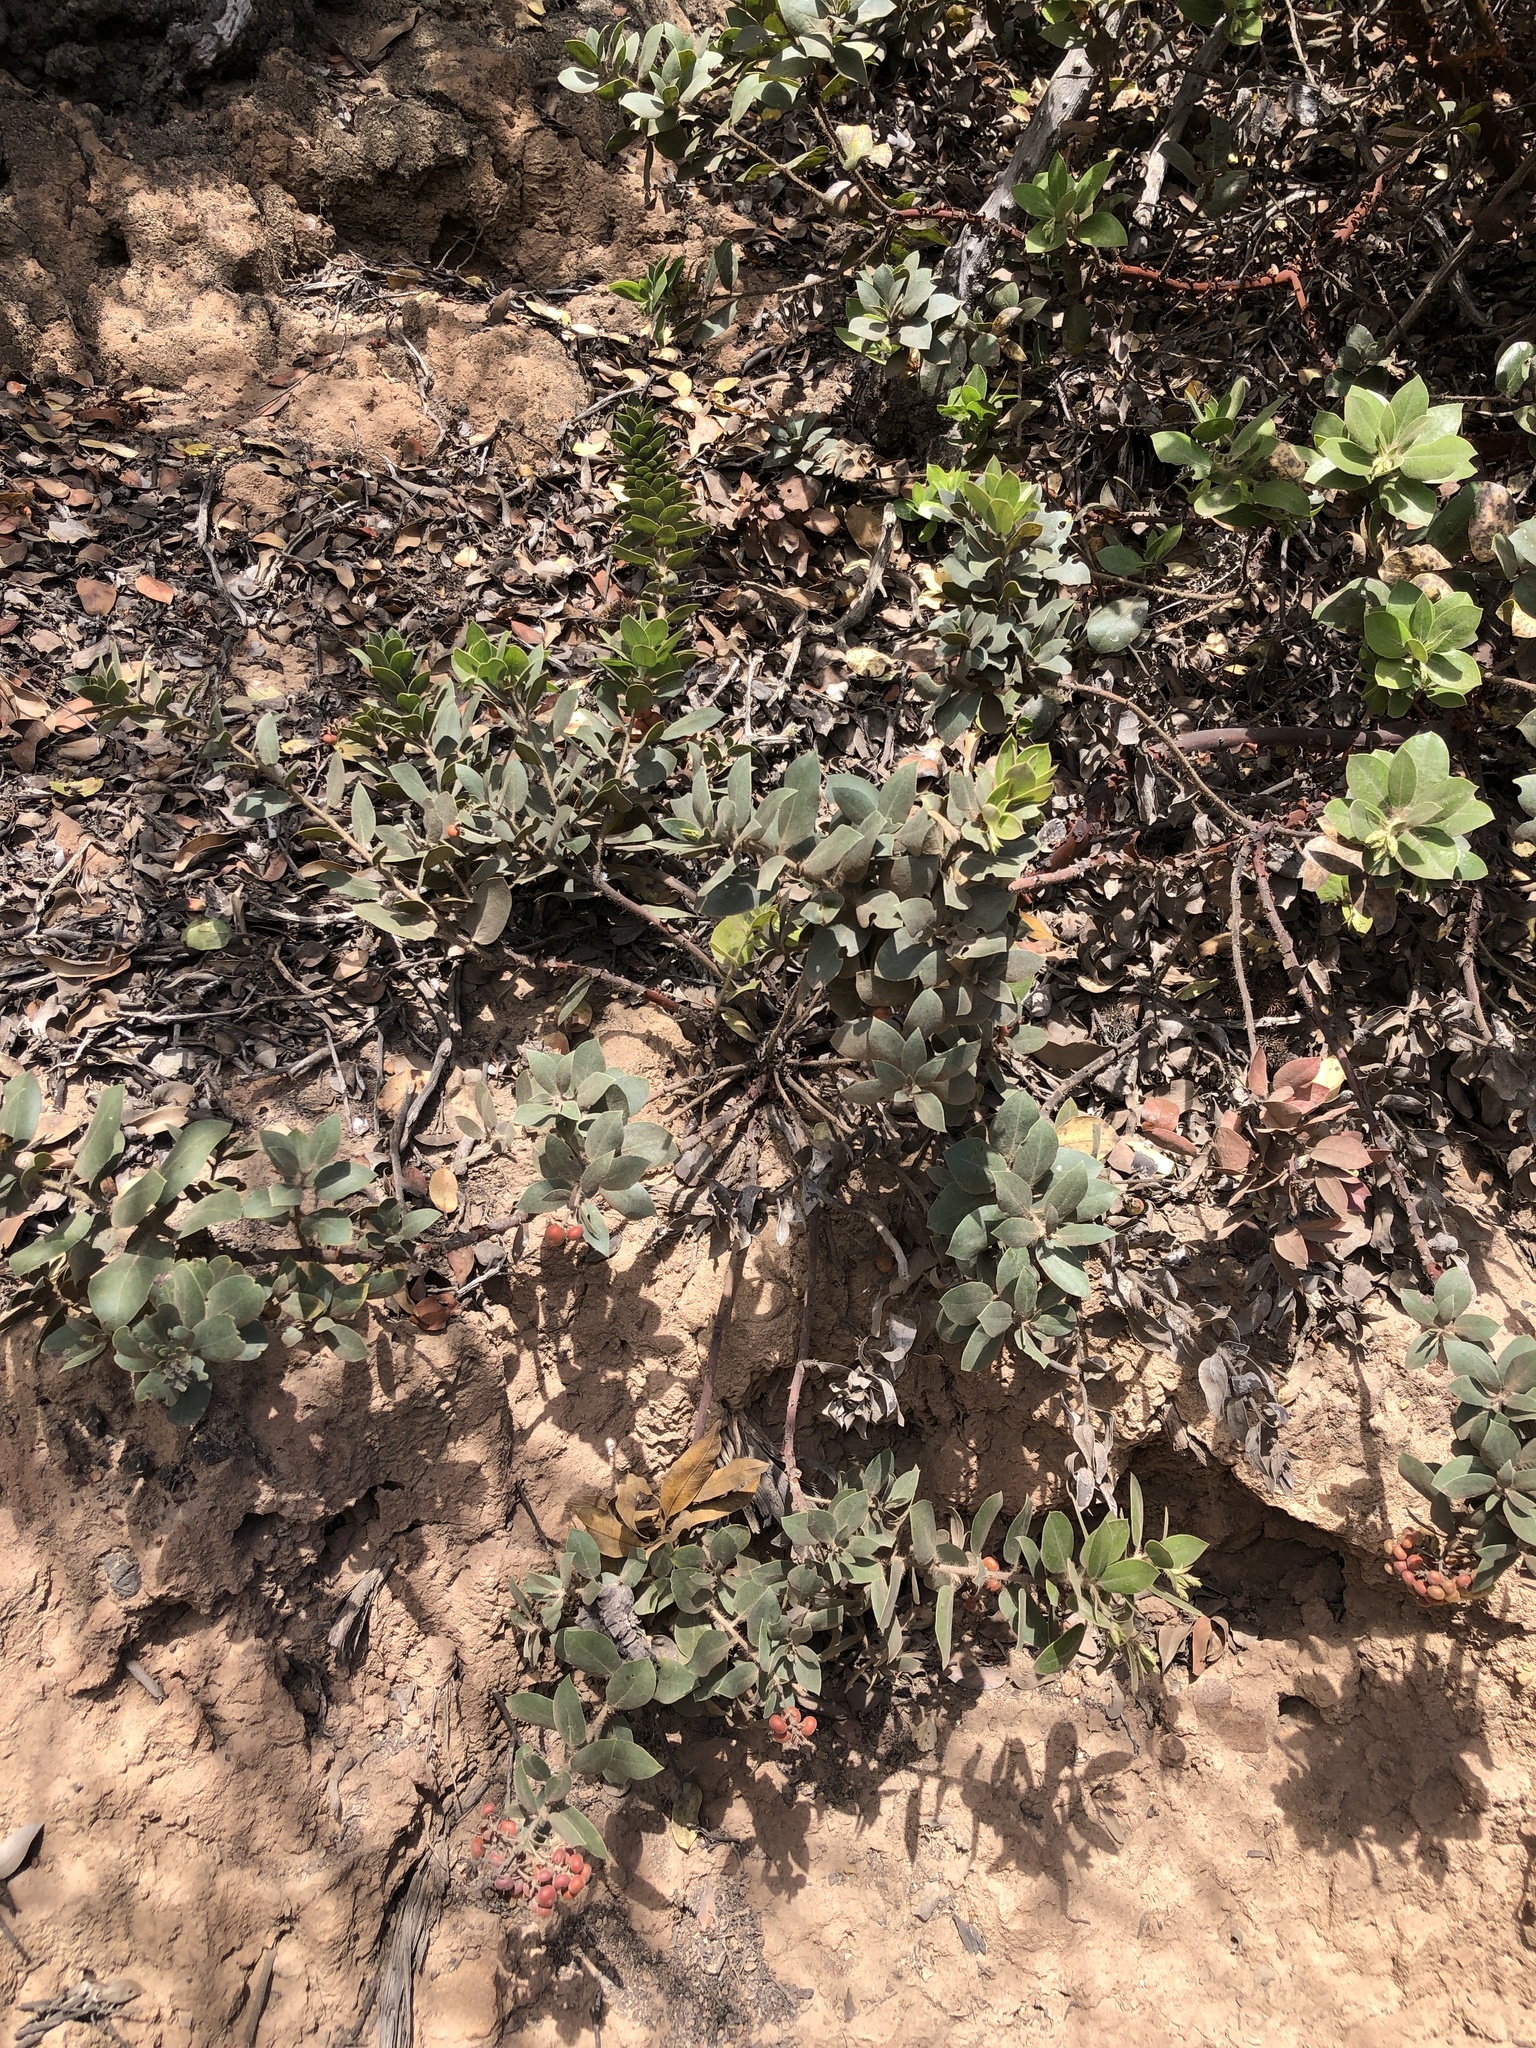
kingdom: Plantae
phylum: Tracheophyta
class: Magnoliopsida
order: Ericales
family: Ericaceae
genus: Arctostaphylos
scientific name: Arctostaphylos crustacea
